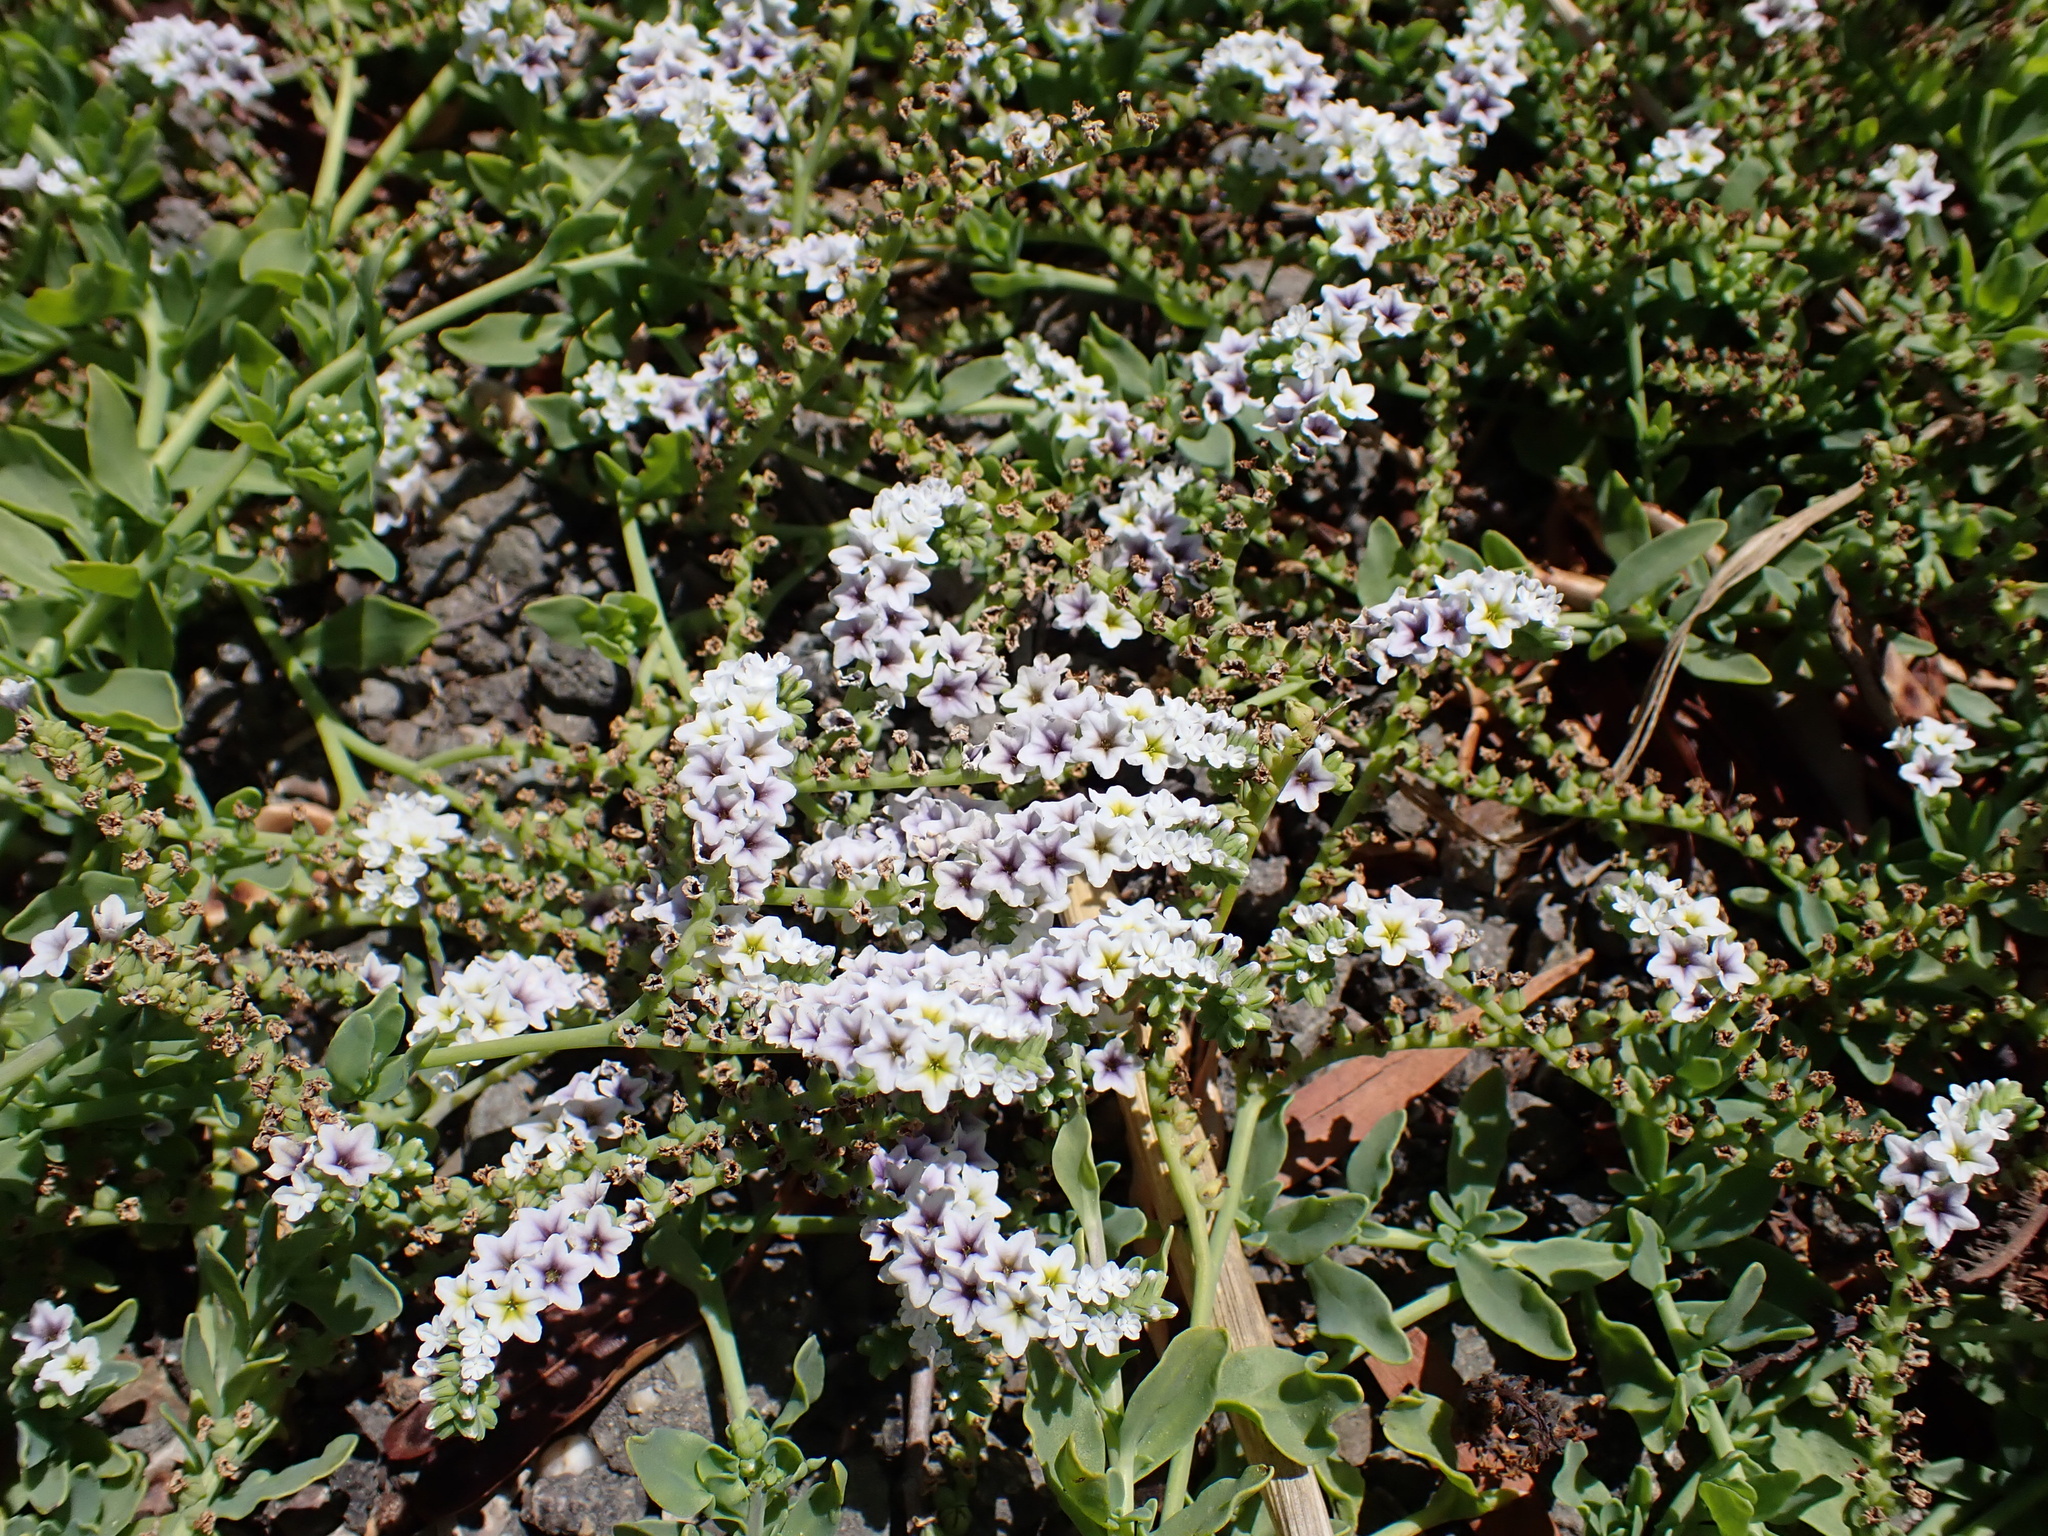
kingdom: Plantae
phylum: Tracheophyta
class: Magnoliopsida
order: Boraginales
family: Heliotropiaceae
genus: Heliotropium
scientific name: Heliotropium curassavicum
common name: Seaside heliotrope
